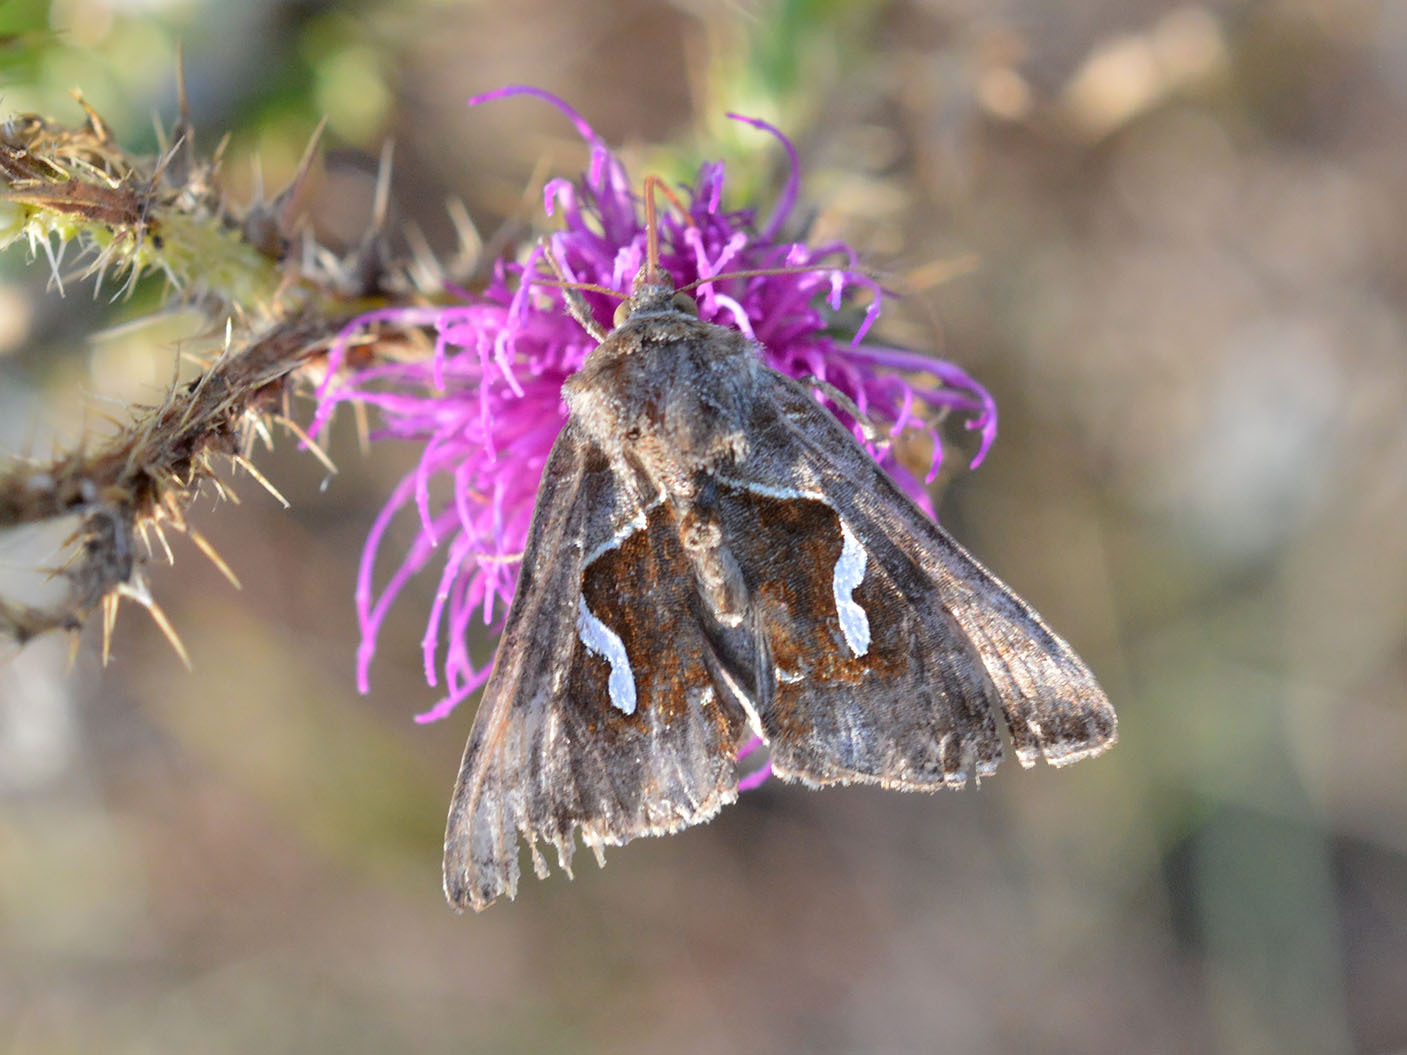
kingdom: Animalia
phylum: Arthropoda
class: Insecta
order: Lepidoptera
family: Noctuidae
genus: Macdunnoughia
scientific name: Macdunnoughia confusa
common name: Dewick's plusia
